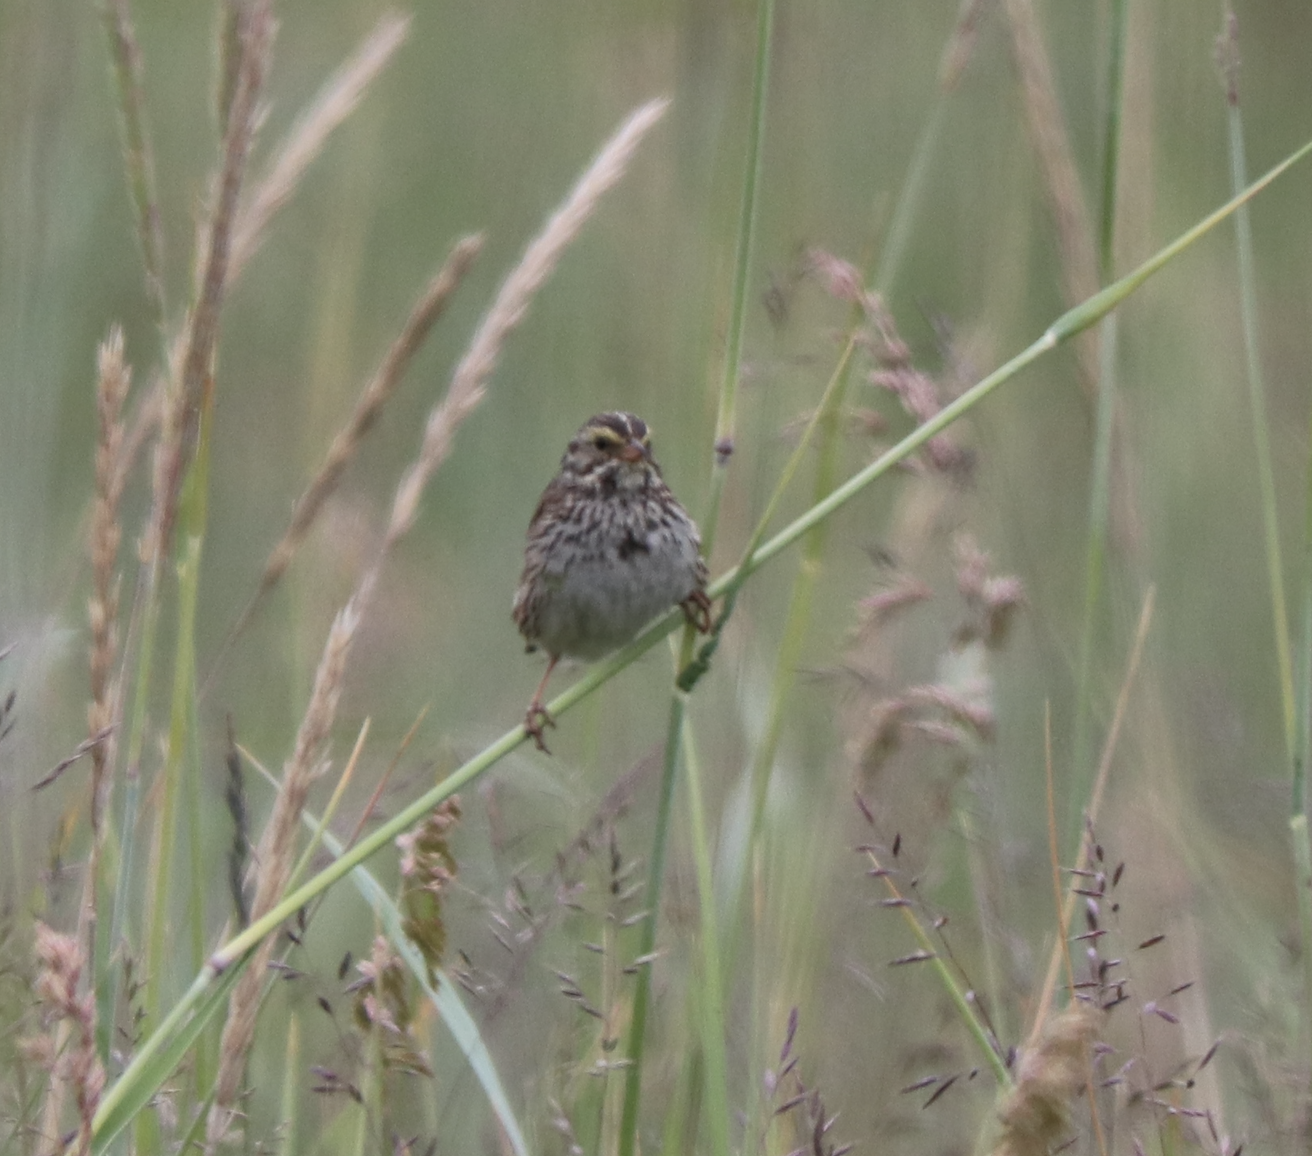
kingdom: Animalia
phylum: Chordata
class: Aves
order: Passeriformes
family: Passerellidae
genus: Passerculus
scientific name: Passerculus sandwichensis
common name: Savannah sparrow
